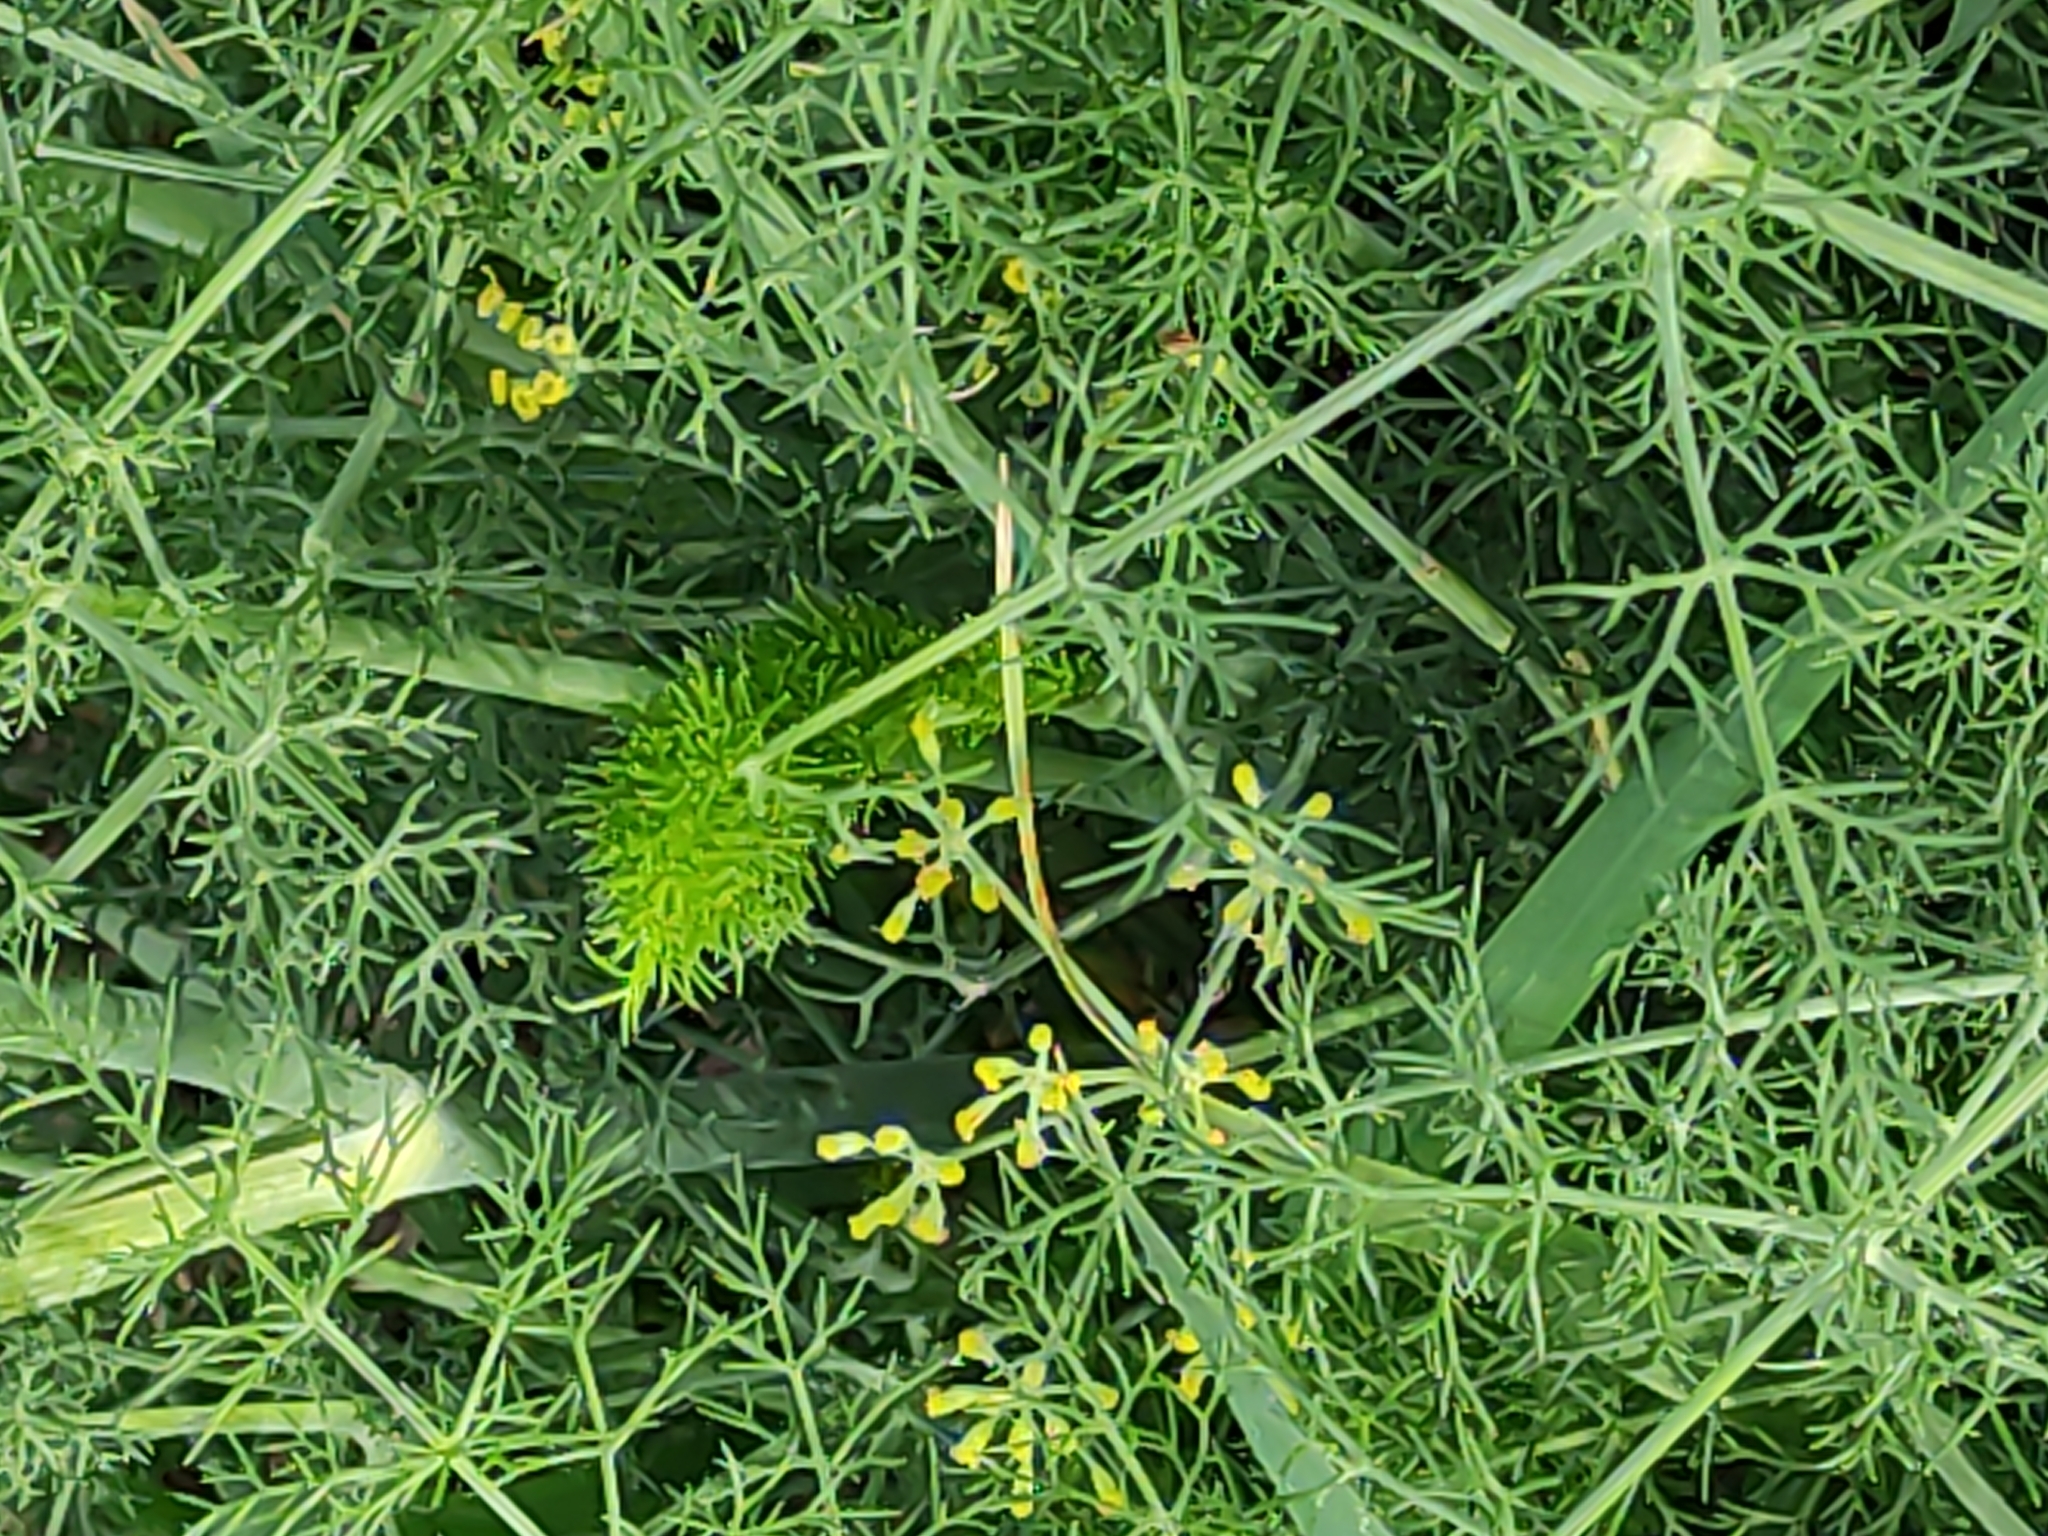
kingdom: Plantae
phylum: Tracheophyta
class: Magnoliopsida
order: Apiales
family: Apiaceae
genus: Foeniculum
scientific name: Foeniculum vulgare
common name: Fennel
